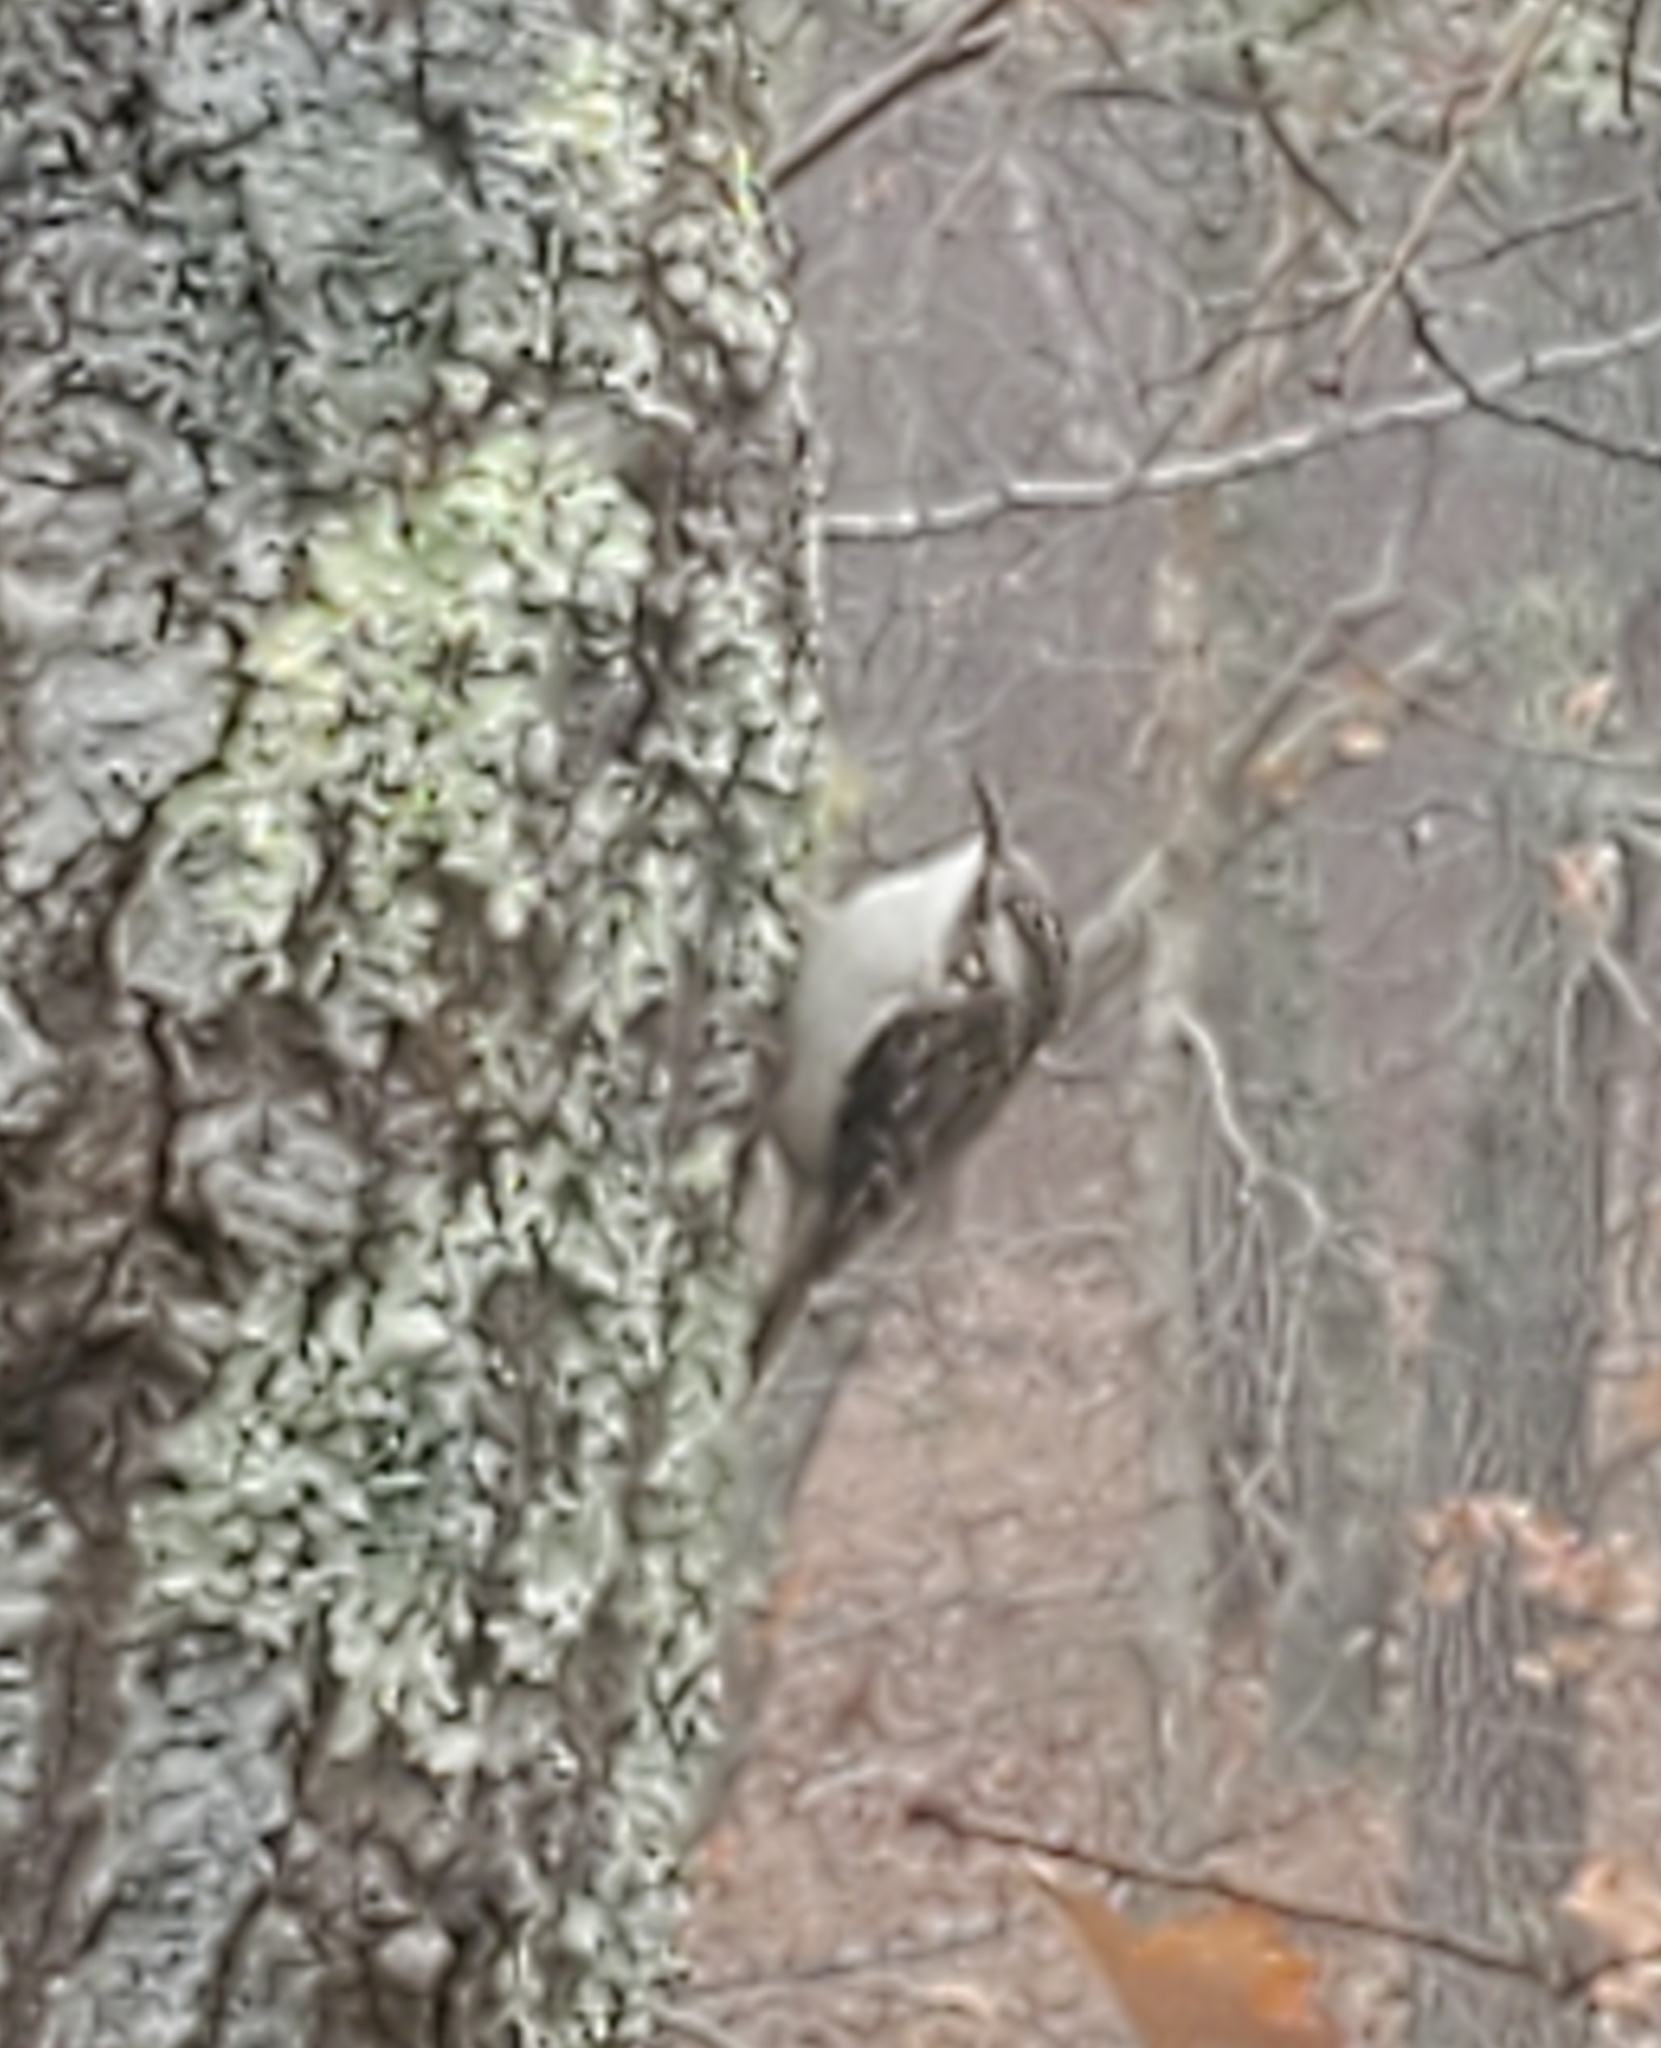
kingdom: Animalia
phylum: Chordata
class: Aves
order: Passeriformes
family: Certhiidae
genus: Certhia
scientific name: Certhia americana
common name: Brown creeper
